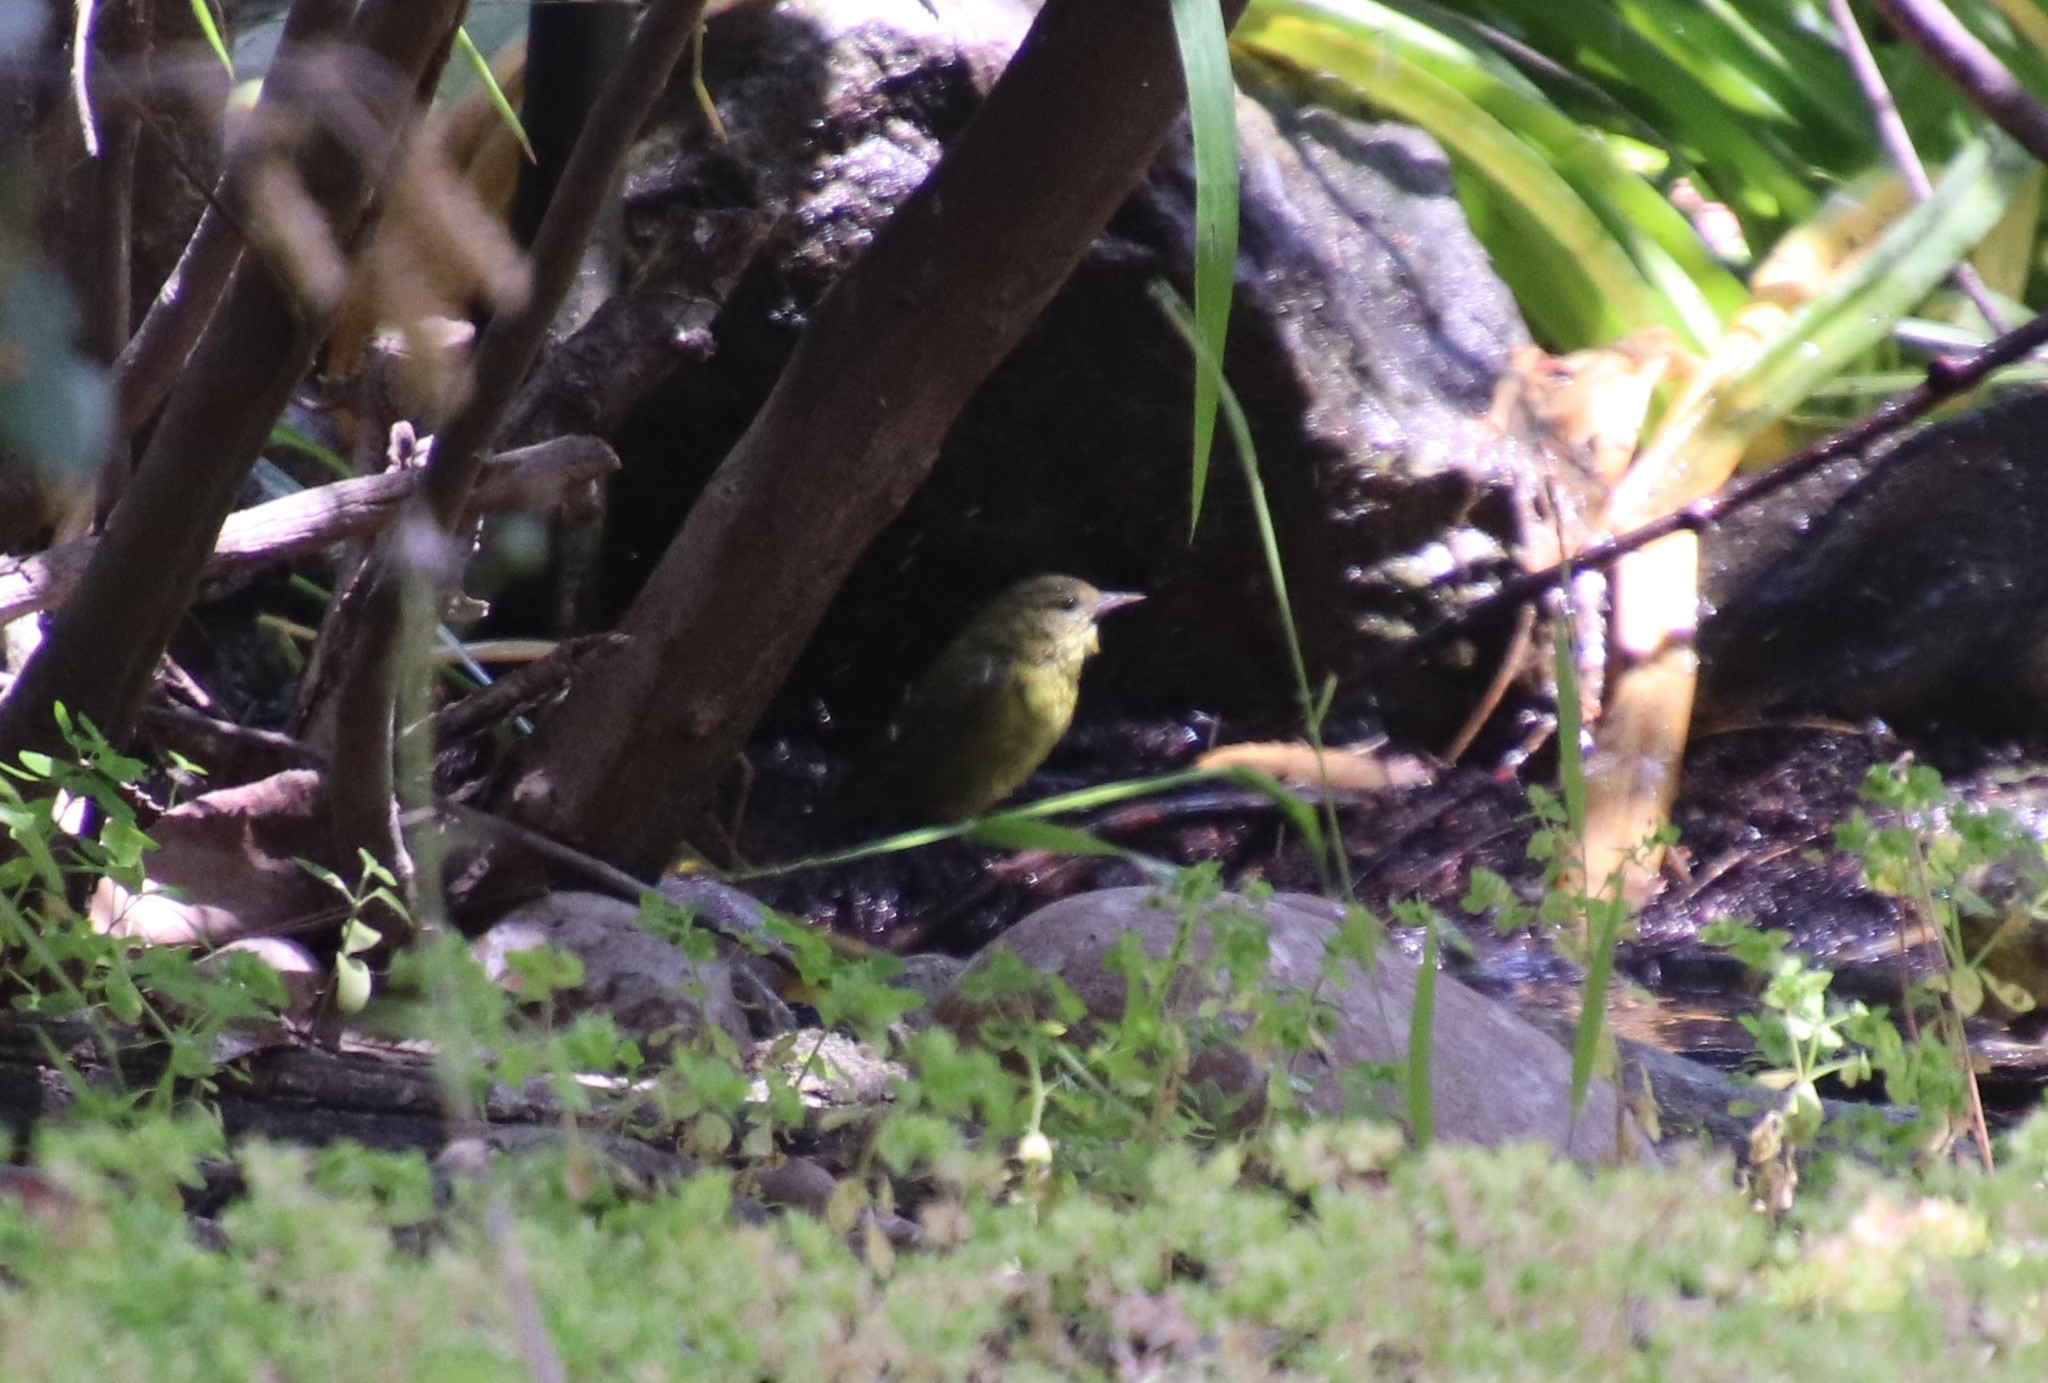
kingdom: Animalia
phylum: Chordata
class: Aves
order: Passeriformes
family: Parulidae
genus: Leiothlypis
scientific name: Leiothlypis celata
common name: Orange-crowned warbler
